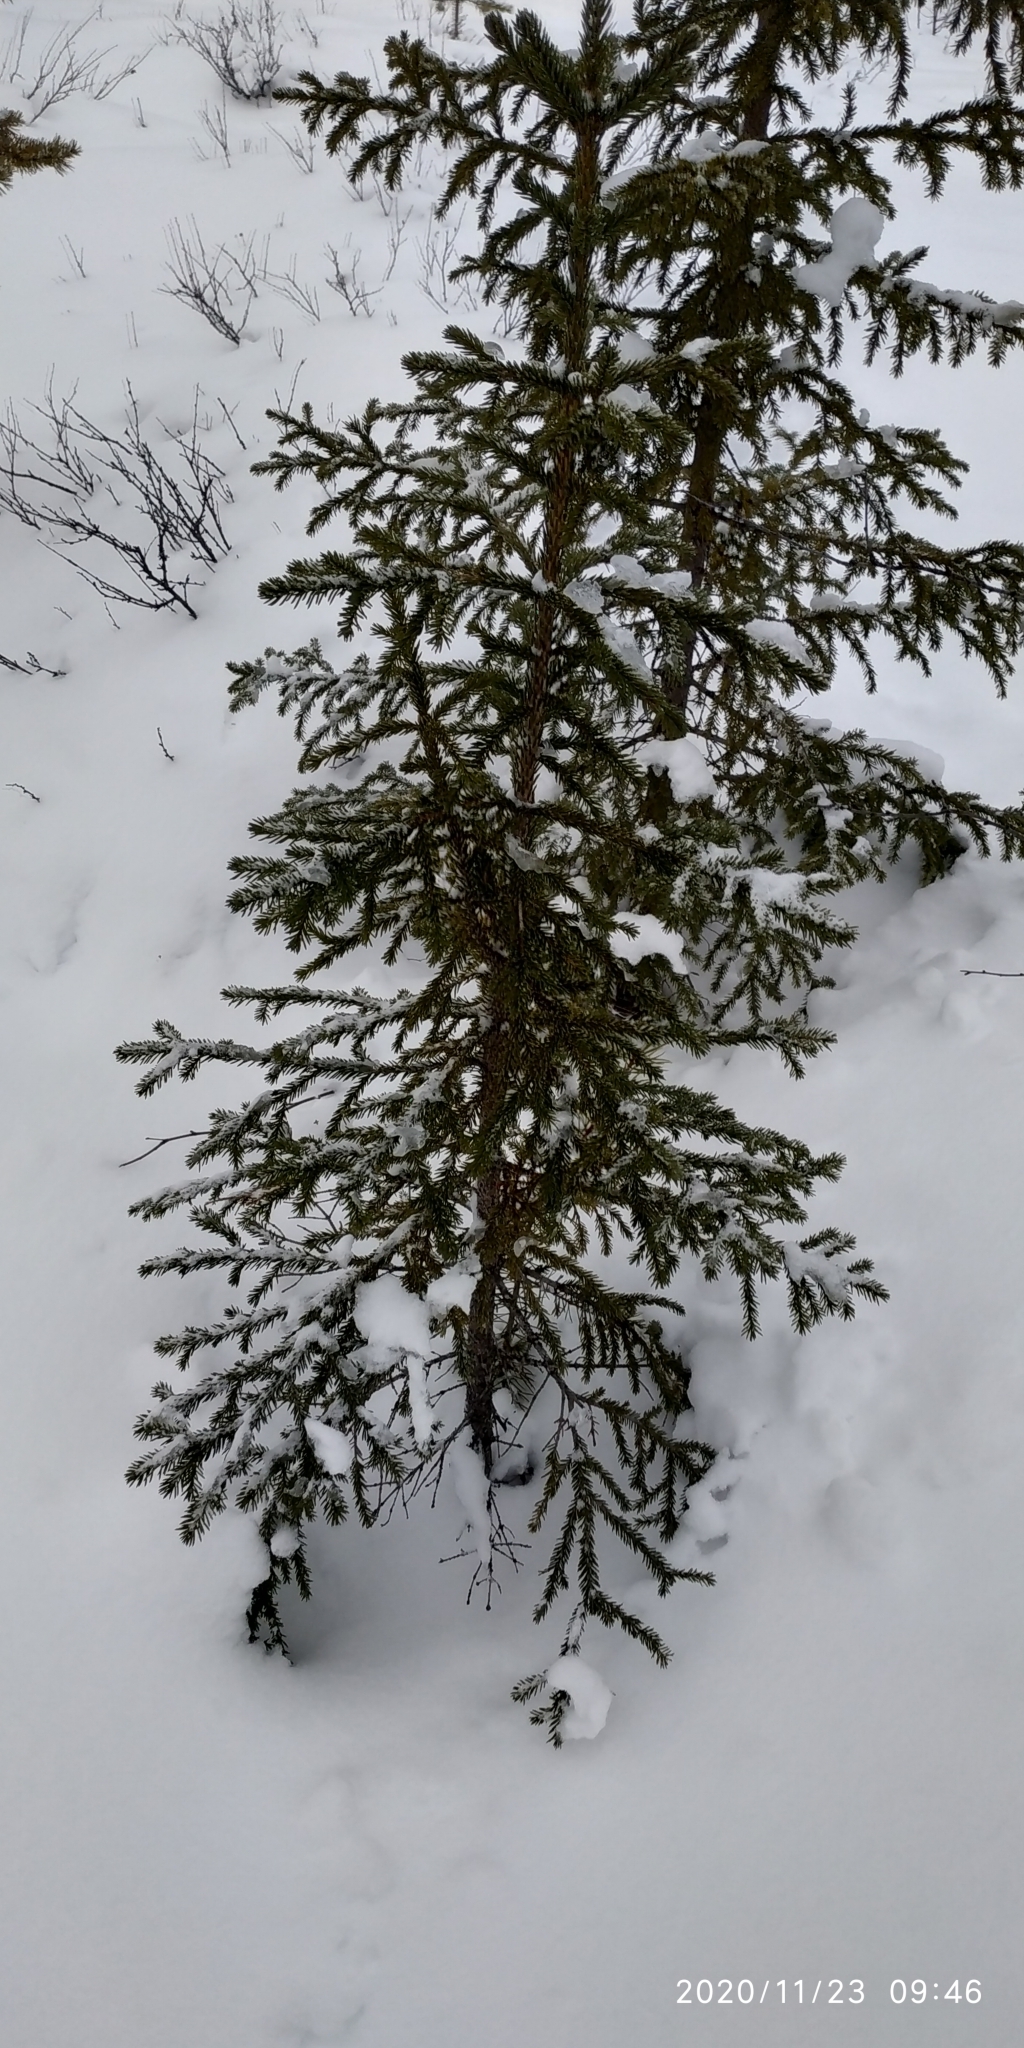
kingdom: Plantae
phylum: Tracheophyta
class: Pinopsida
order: Pinales
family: Pinaceae
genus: Picea
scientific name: Picea obovata
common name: Siberian spruce
